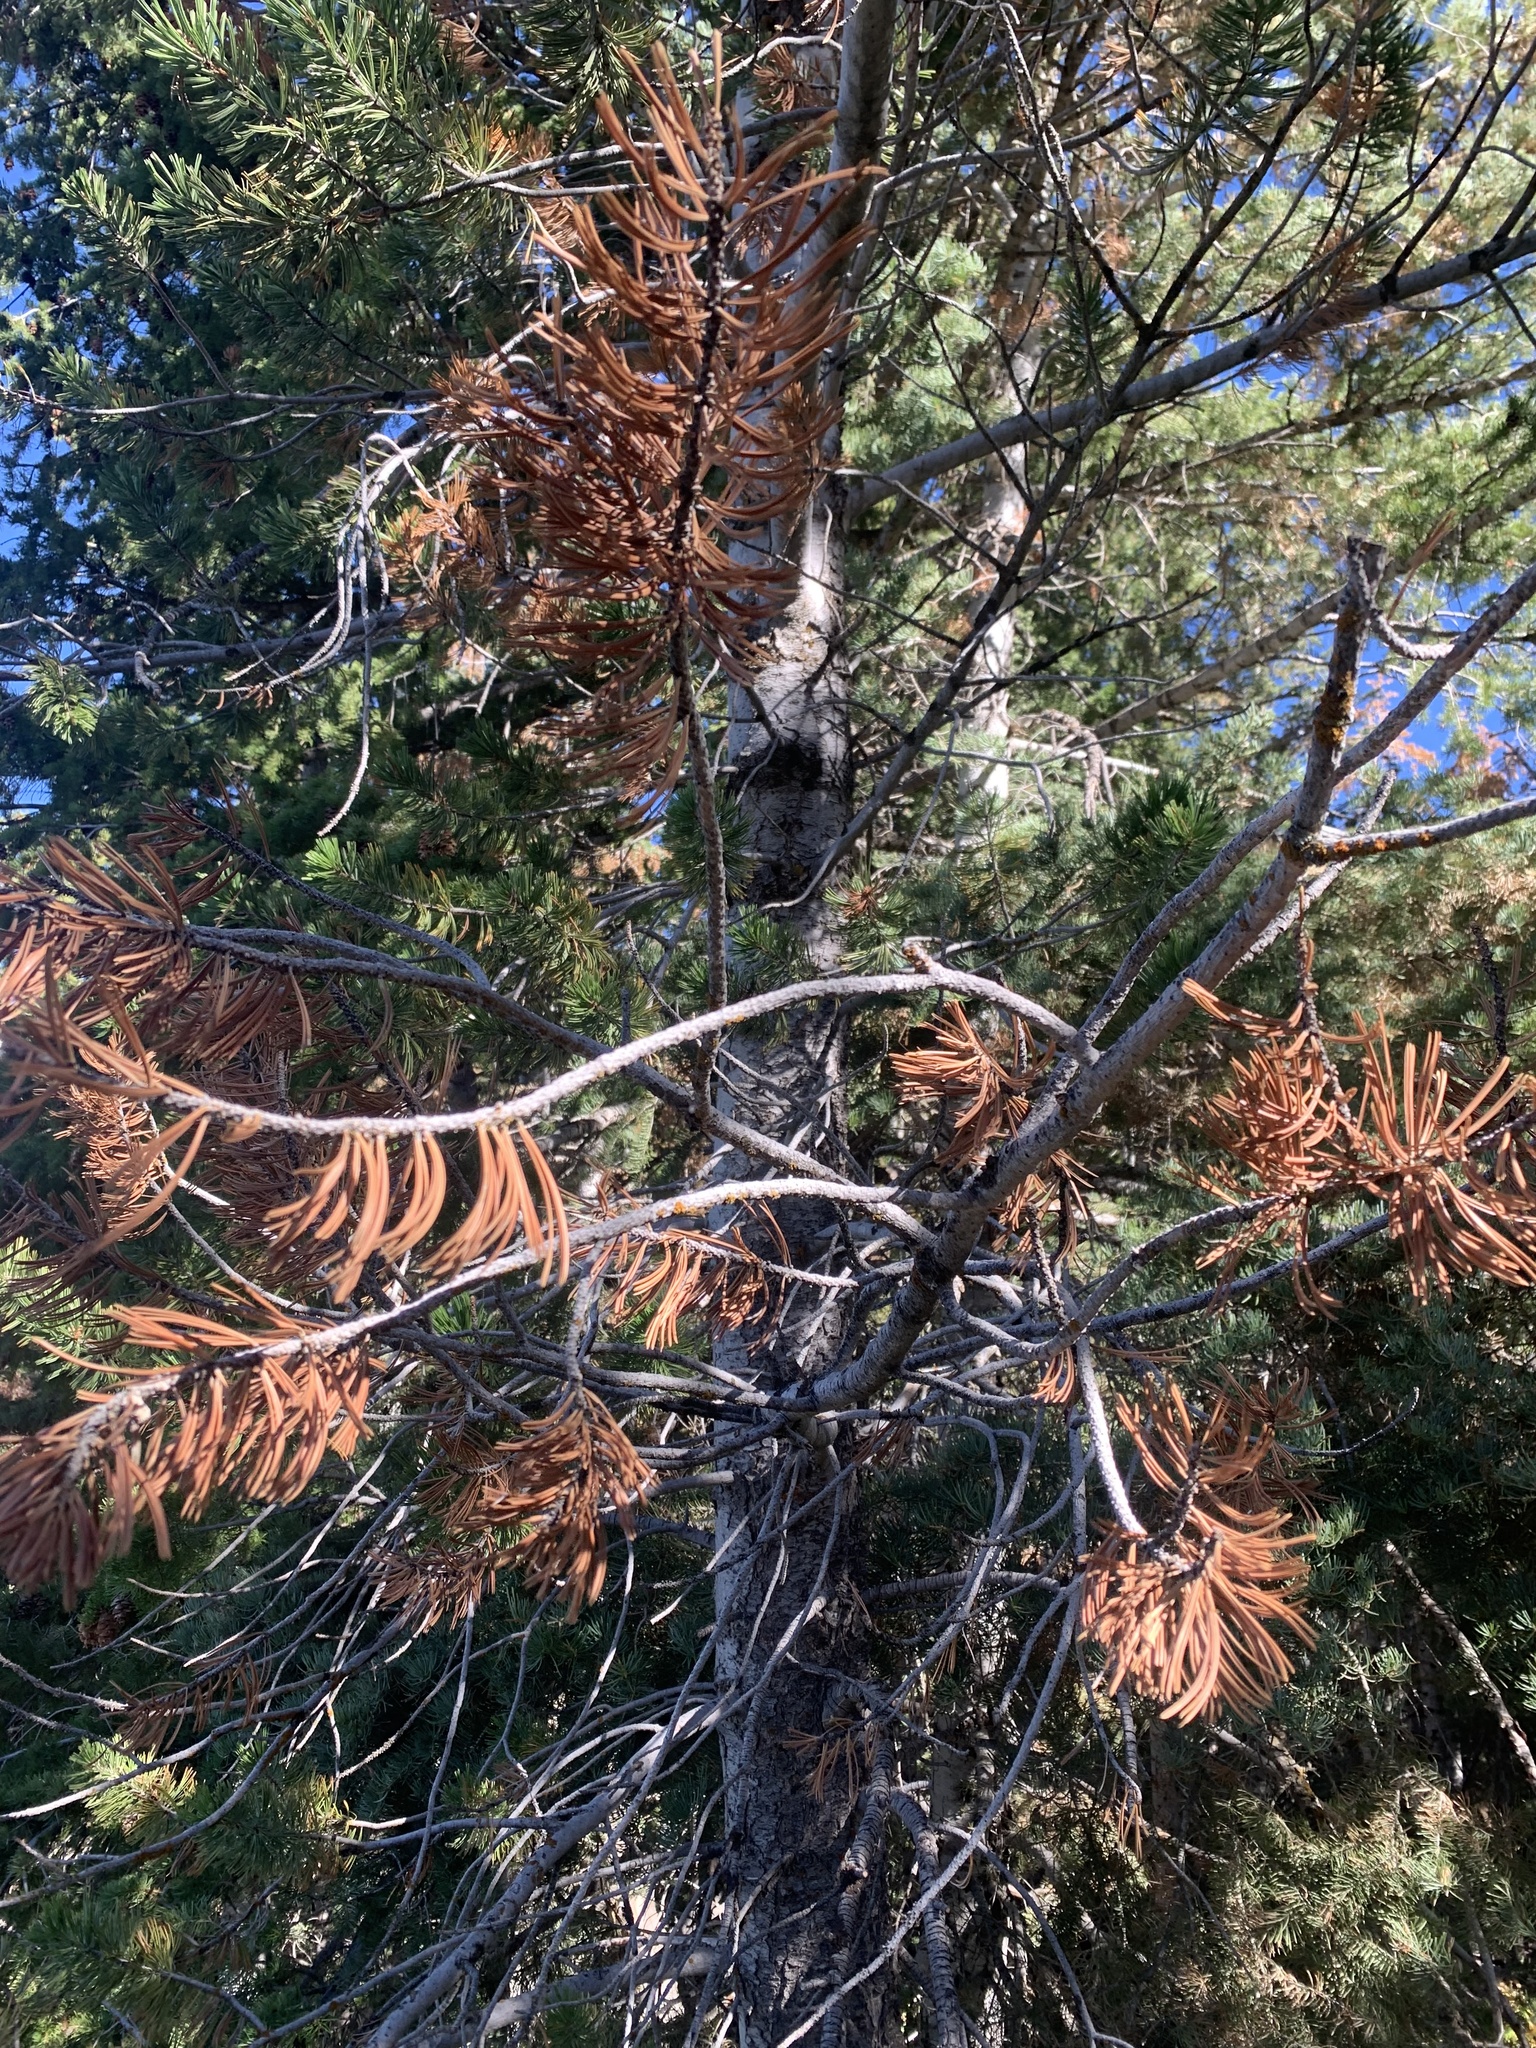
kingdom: Plantae
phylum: Tracheophyta
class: Pinopsida
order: Pinales
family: Pinaceae
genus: Pinus
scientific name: Pinus flexilis
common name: Limber pine
